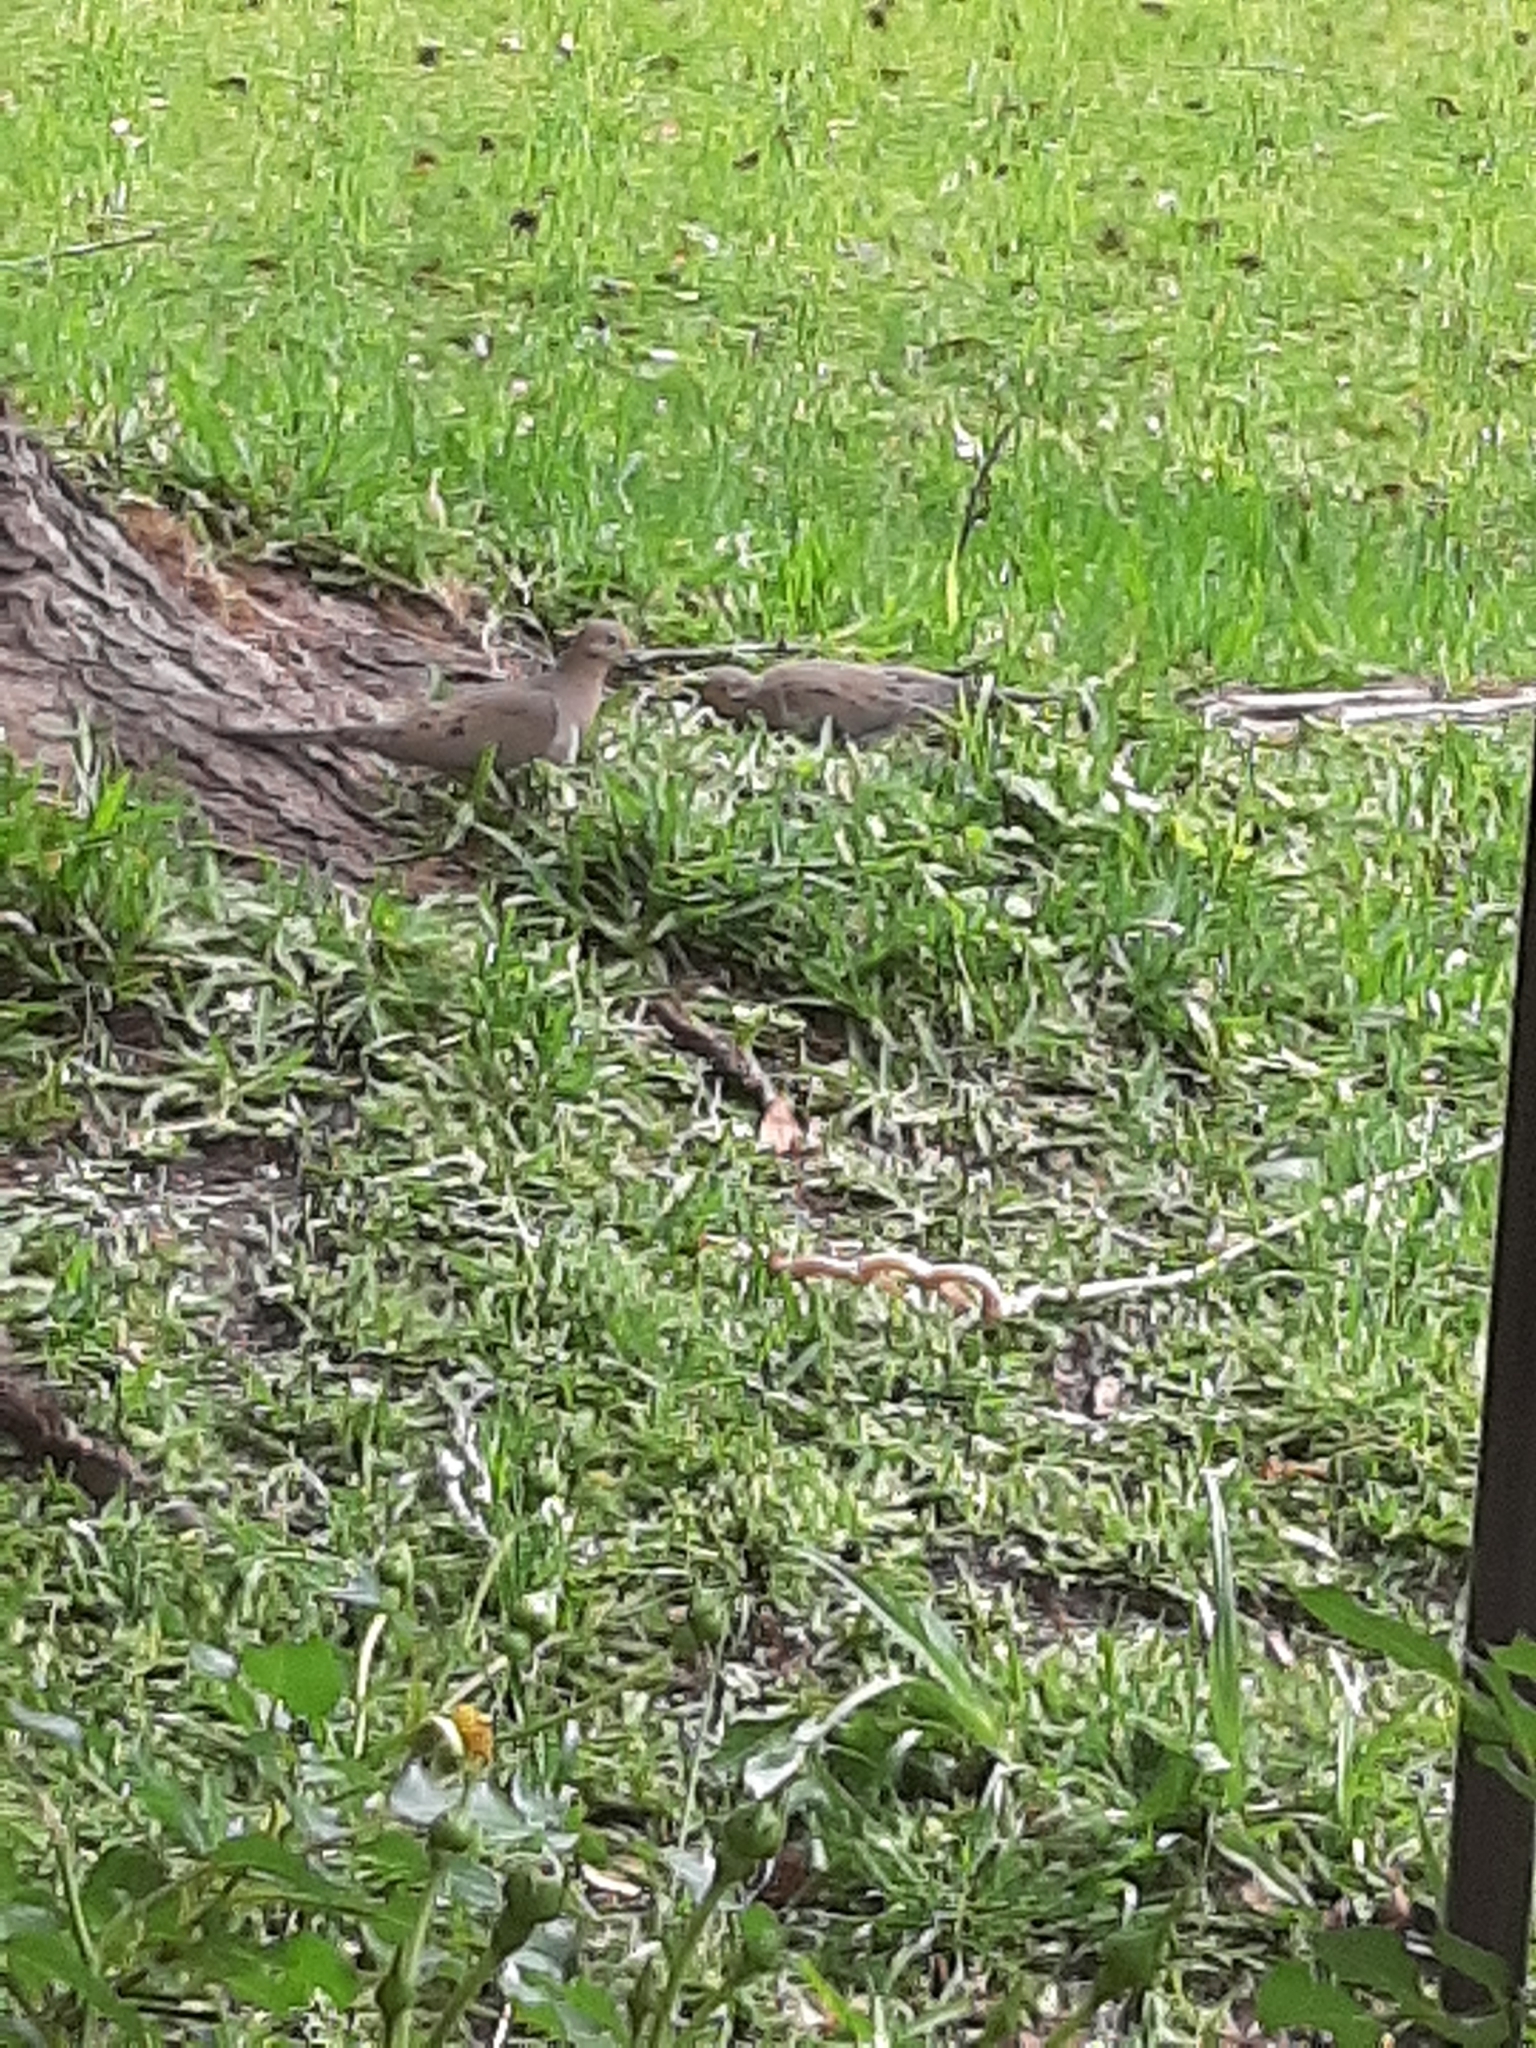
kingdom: Animalia
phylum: Chordata
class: Aves
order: Columbiformes
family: Columbidae
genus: Zenaida
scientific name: Zenaida macroura
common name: Mourning dove
